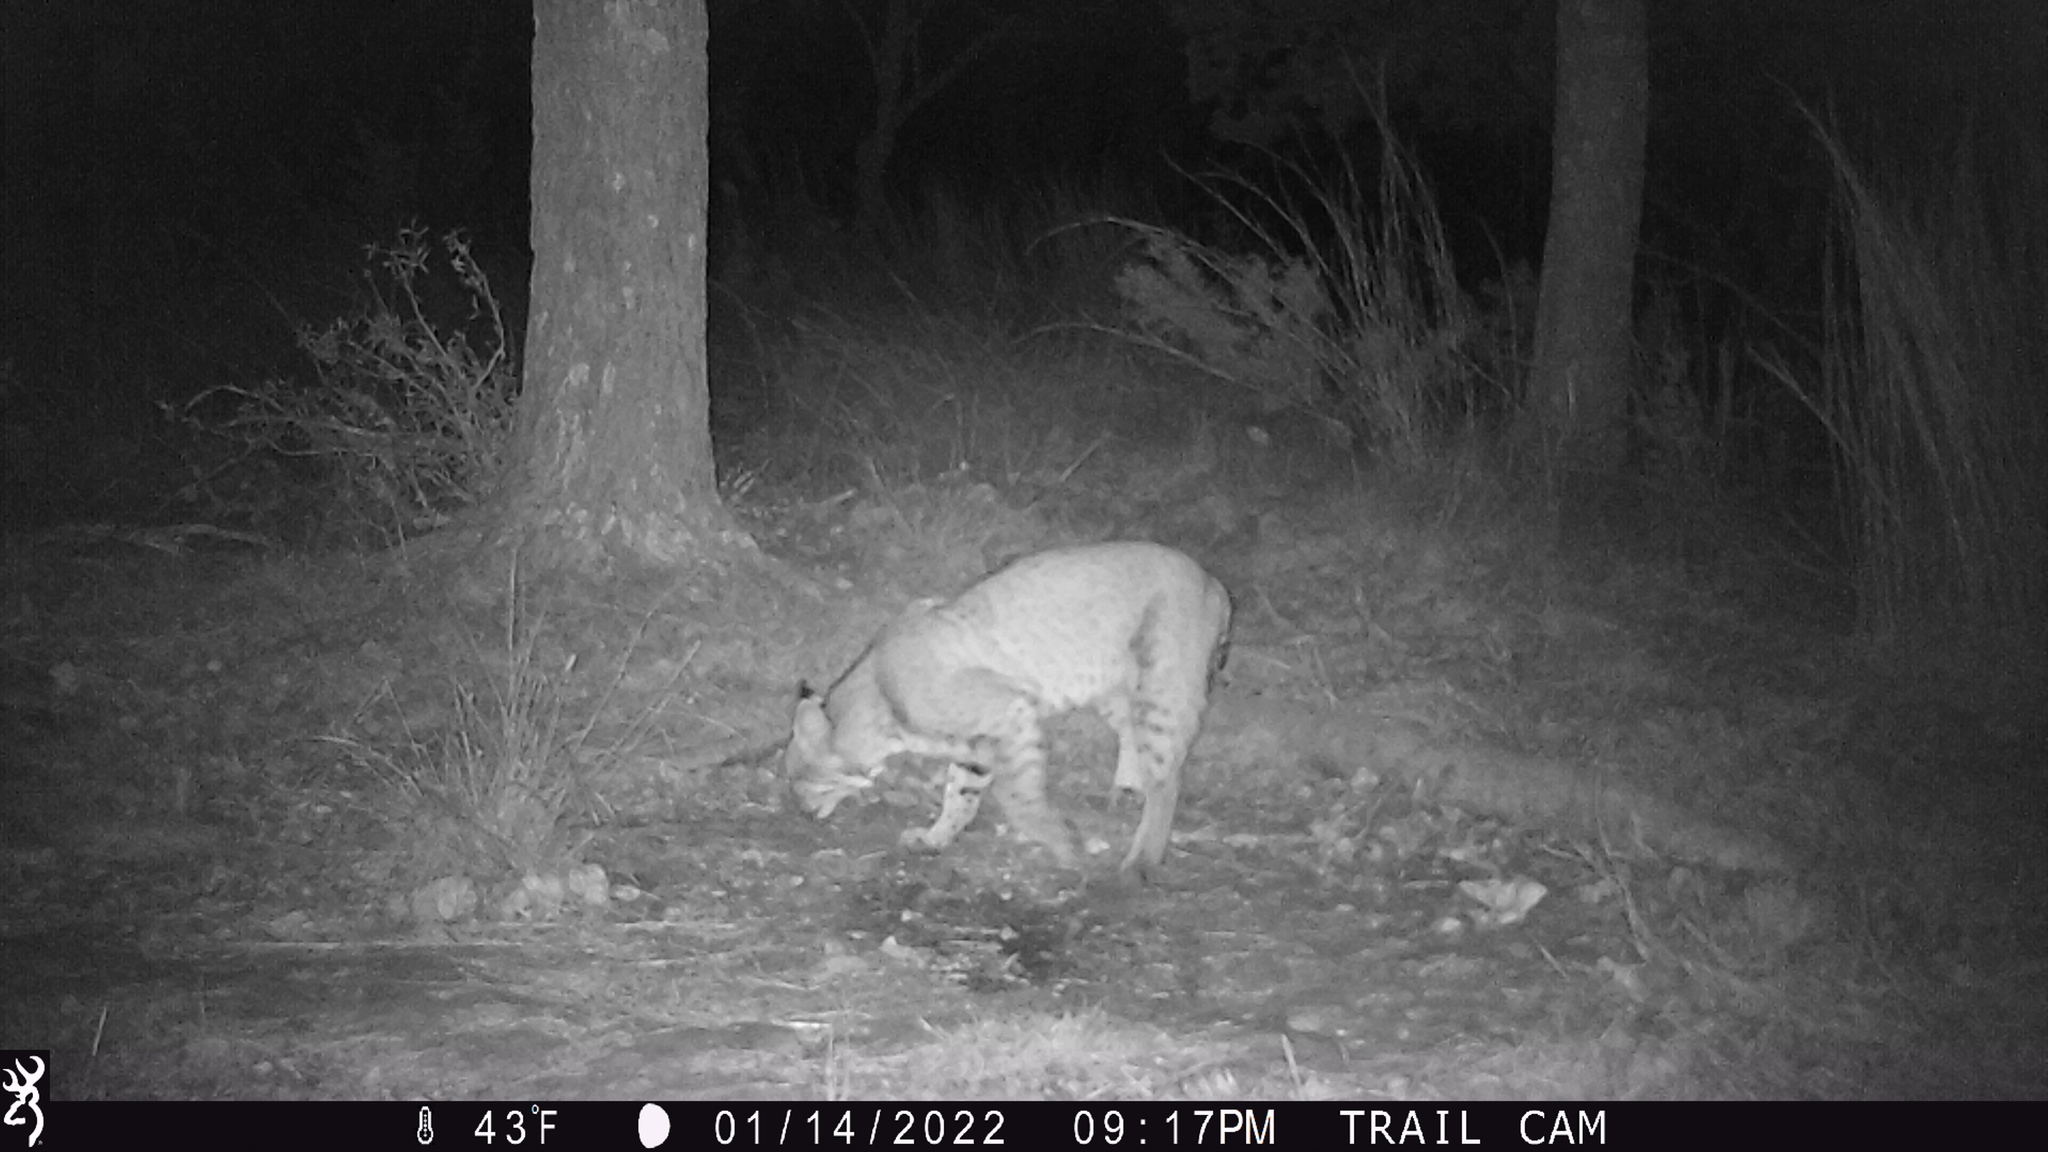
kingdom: Animalia
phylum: Chordata
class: Mammalia
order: Carnivora
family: Felidae
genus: Lynx
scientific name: Lynx rufus
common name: Bobcat
